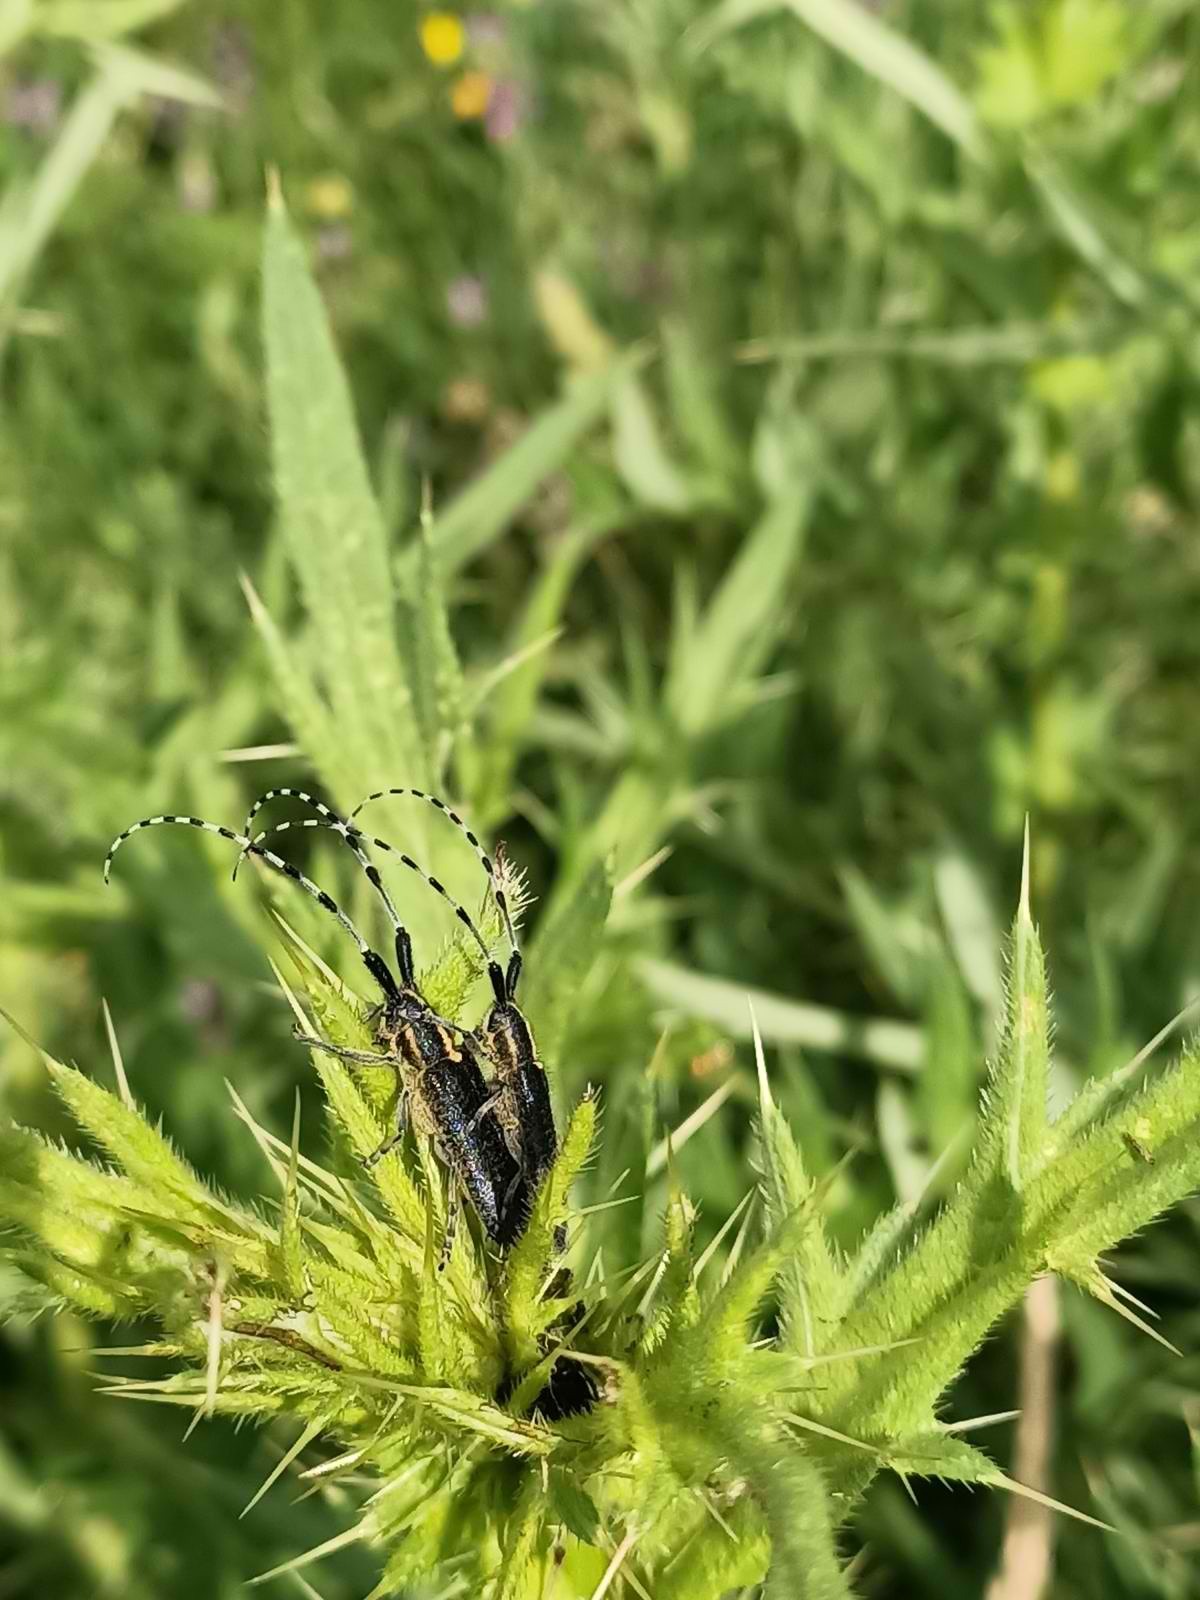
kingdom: Animalia
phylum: Arthropoda
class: Insecta
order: Coleoptera
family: Cerambycidae
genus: Agapanthia
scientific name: Agapanthia lederi
